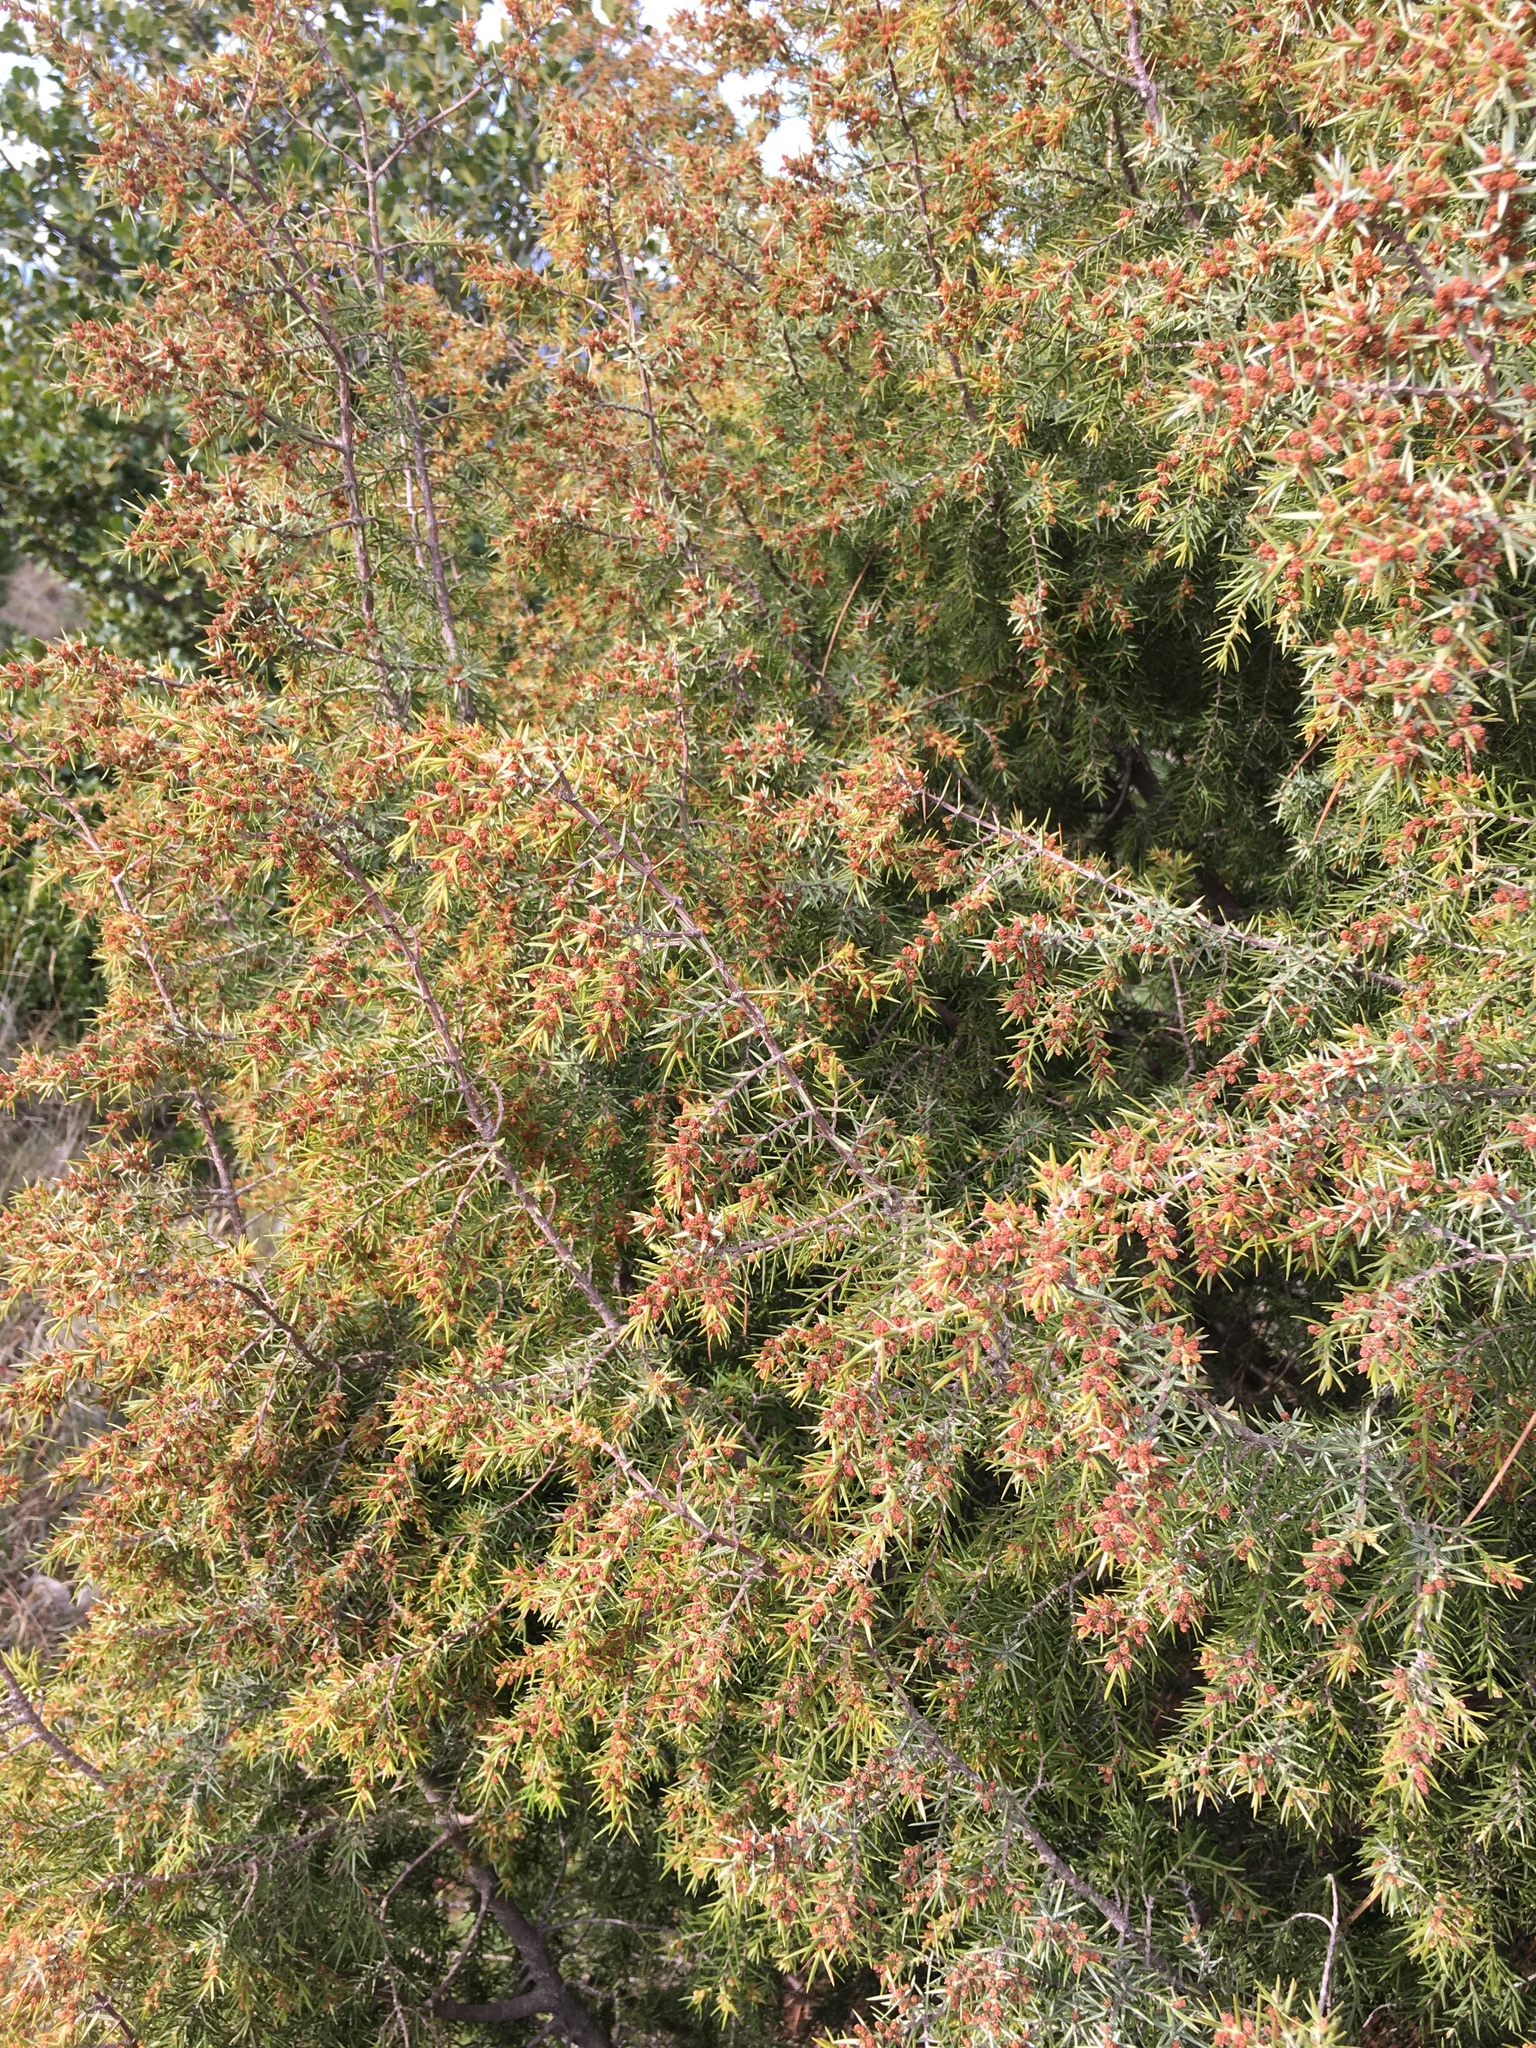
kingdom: Plantae
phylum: Tracheophyta
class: Pinopsida
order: Pinales
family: Cupressaceae
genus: Juniperus
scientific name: Juniperus communis
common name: Common juniper
